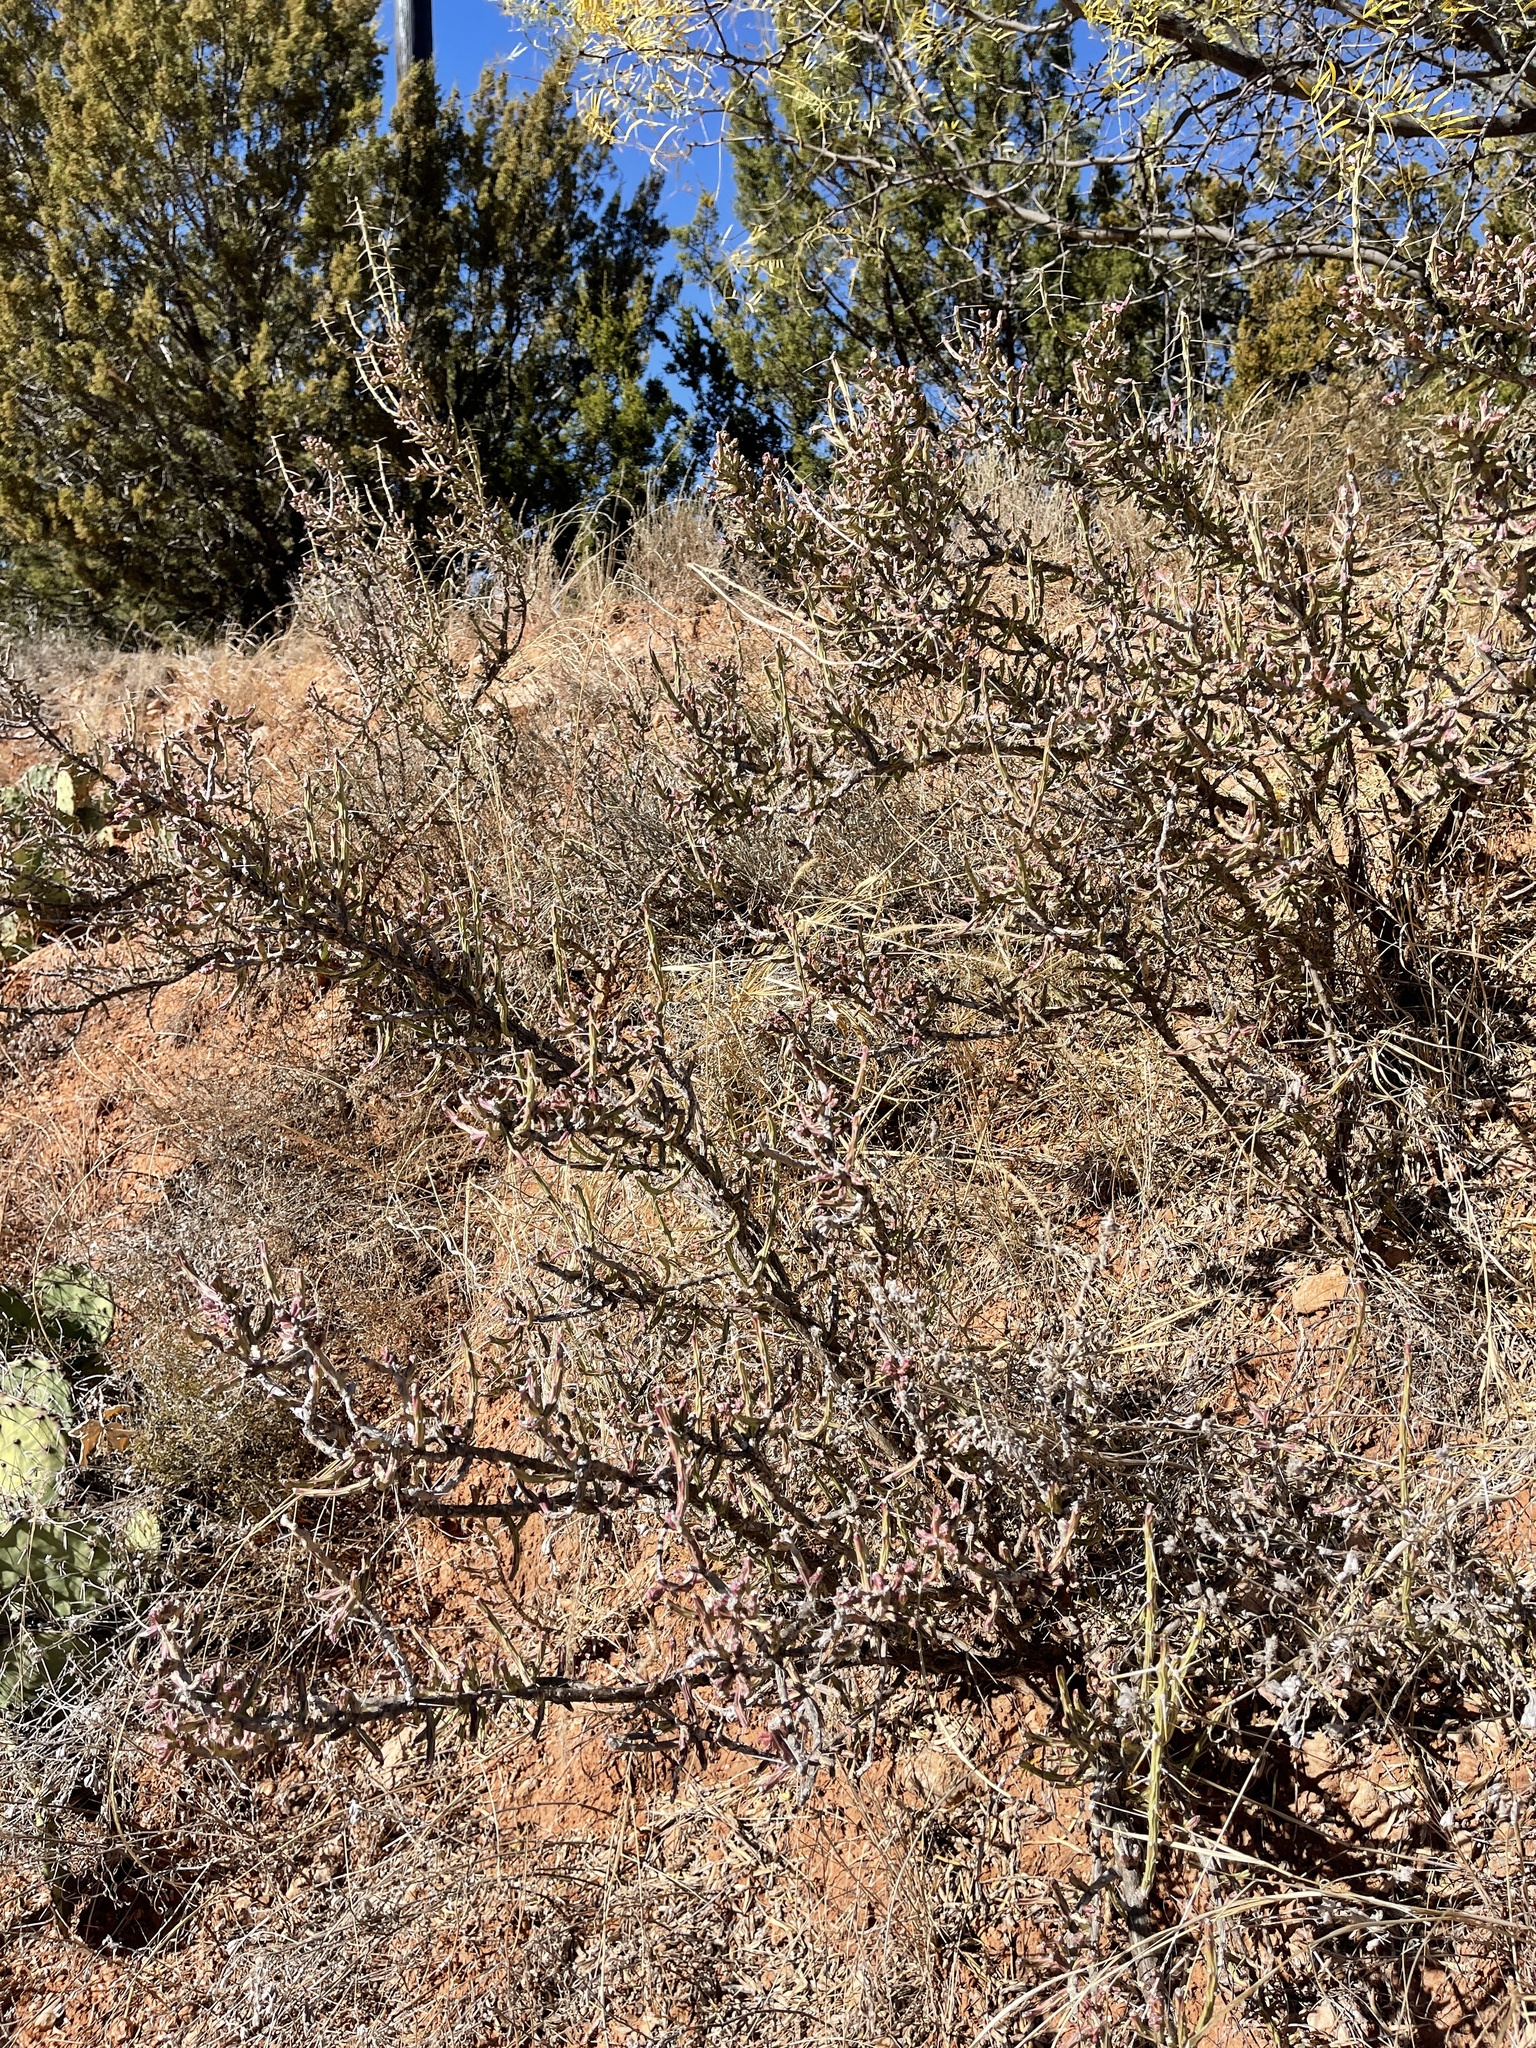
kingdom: Plantae
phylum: Tracheophyta
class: Magnoliopsida
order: Caryophyllales
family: Cactaceae
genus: Cylindropuntia
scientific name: Cylindropuntia leptocaulis
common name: Christmas cactus
